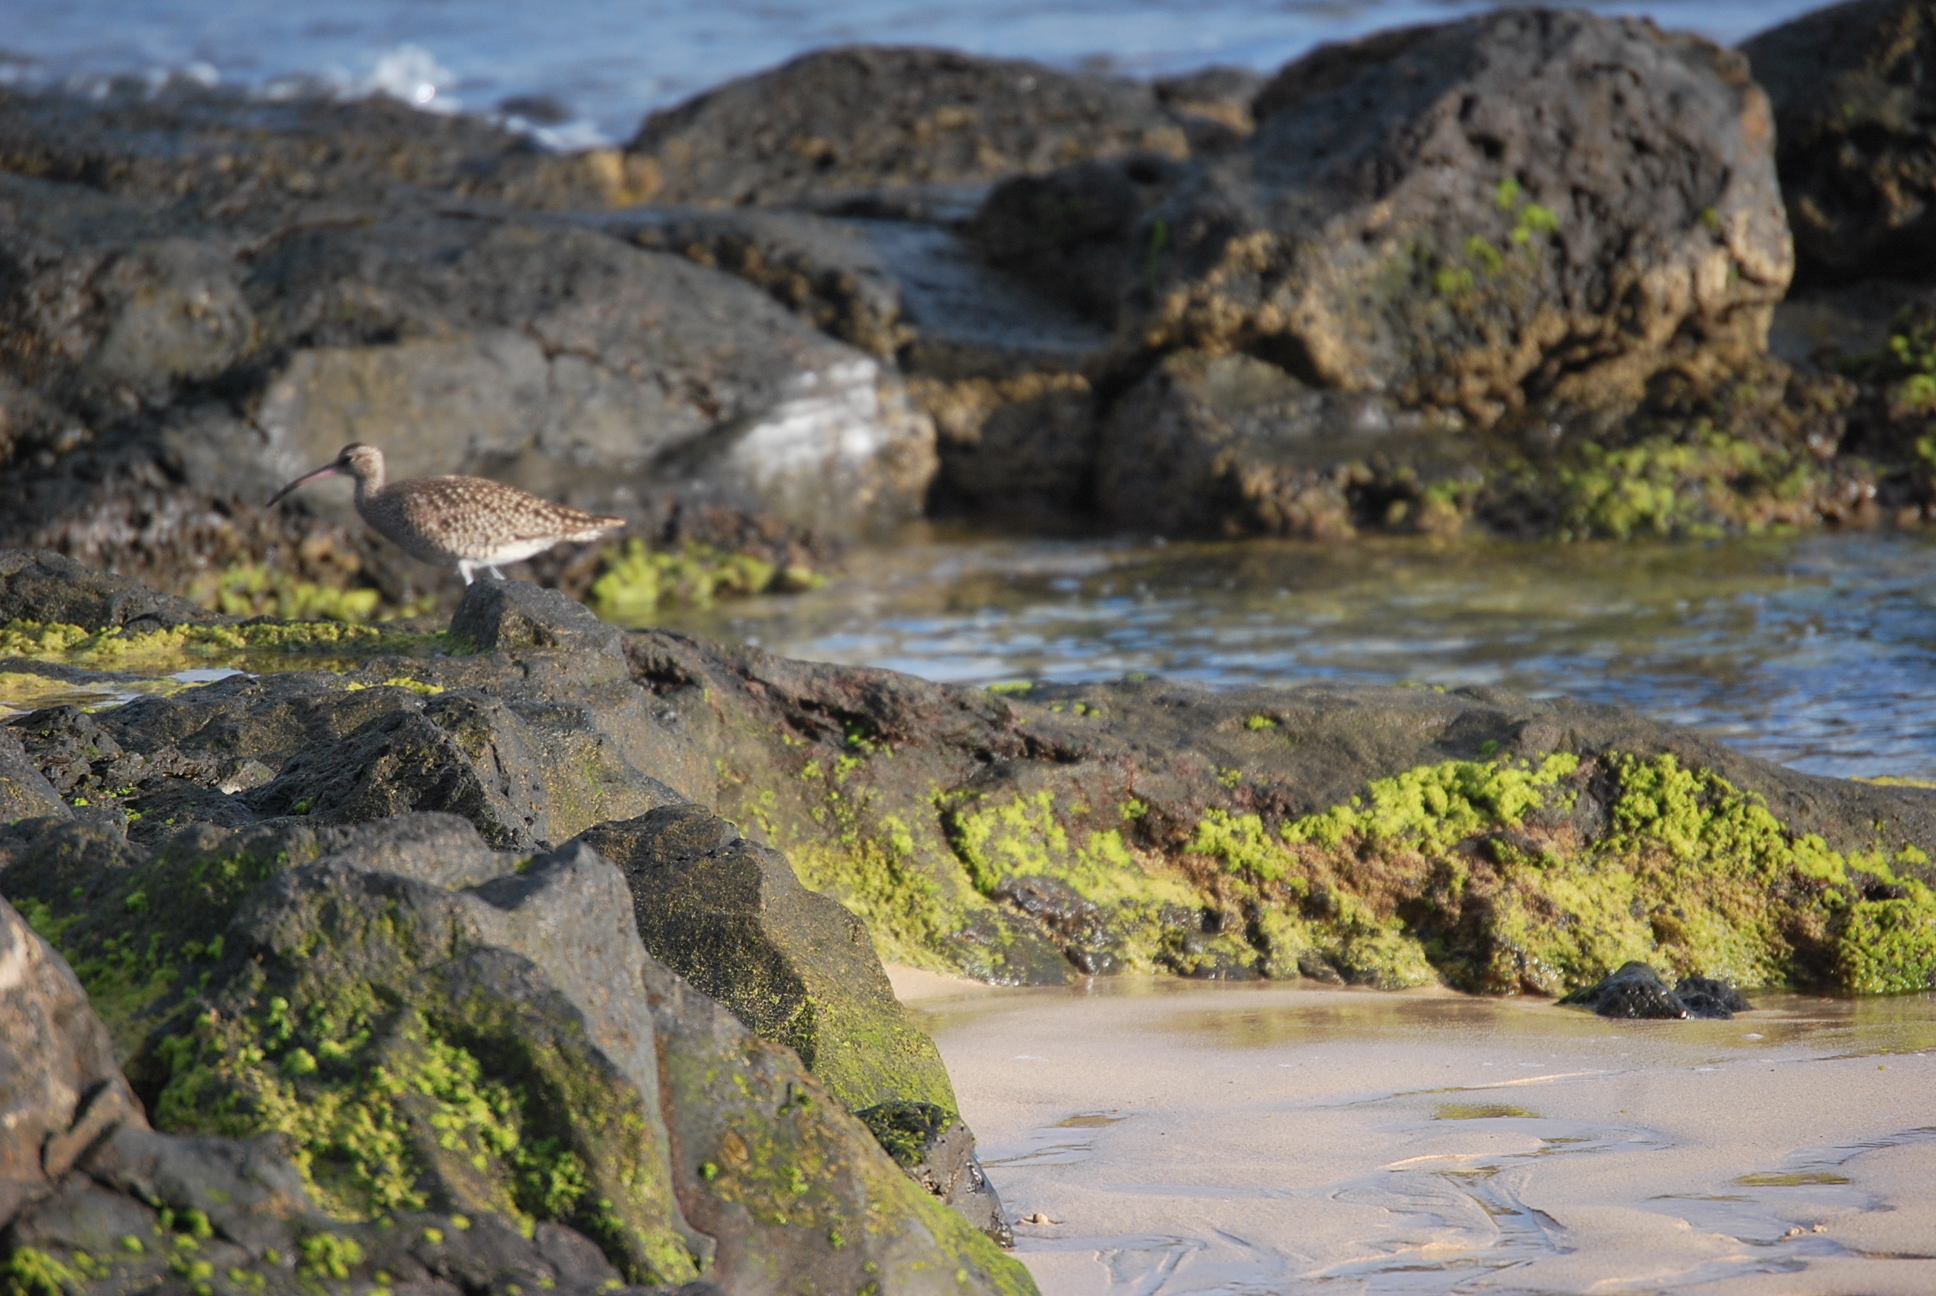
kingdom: Animalia
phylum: Chordata
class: Aves
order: Charadriiformes
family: Scolopacidae
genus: Numenius
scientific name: Numenius phaeopus
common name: Whimbrel
